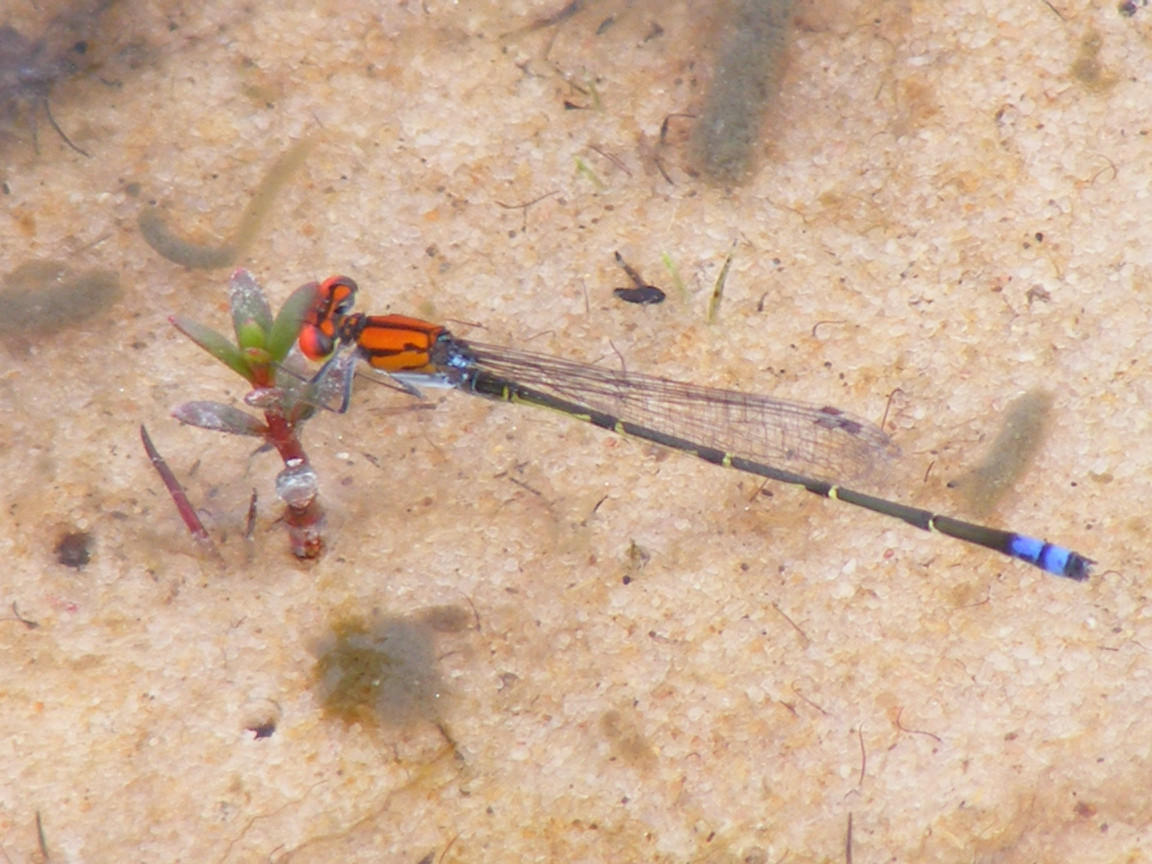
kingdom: Animalia
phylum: Arthropoda
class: Insecta
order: Odonata
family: Coenagrionidae
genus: Pseudagrion
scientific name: Pseudagrion massaicum
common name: Masai sprite
